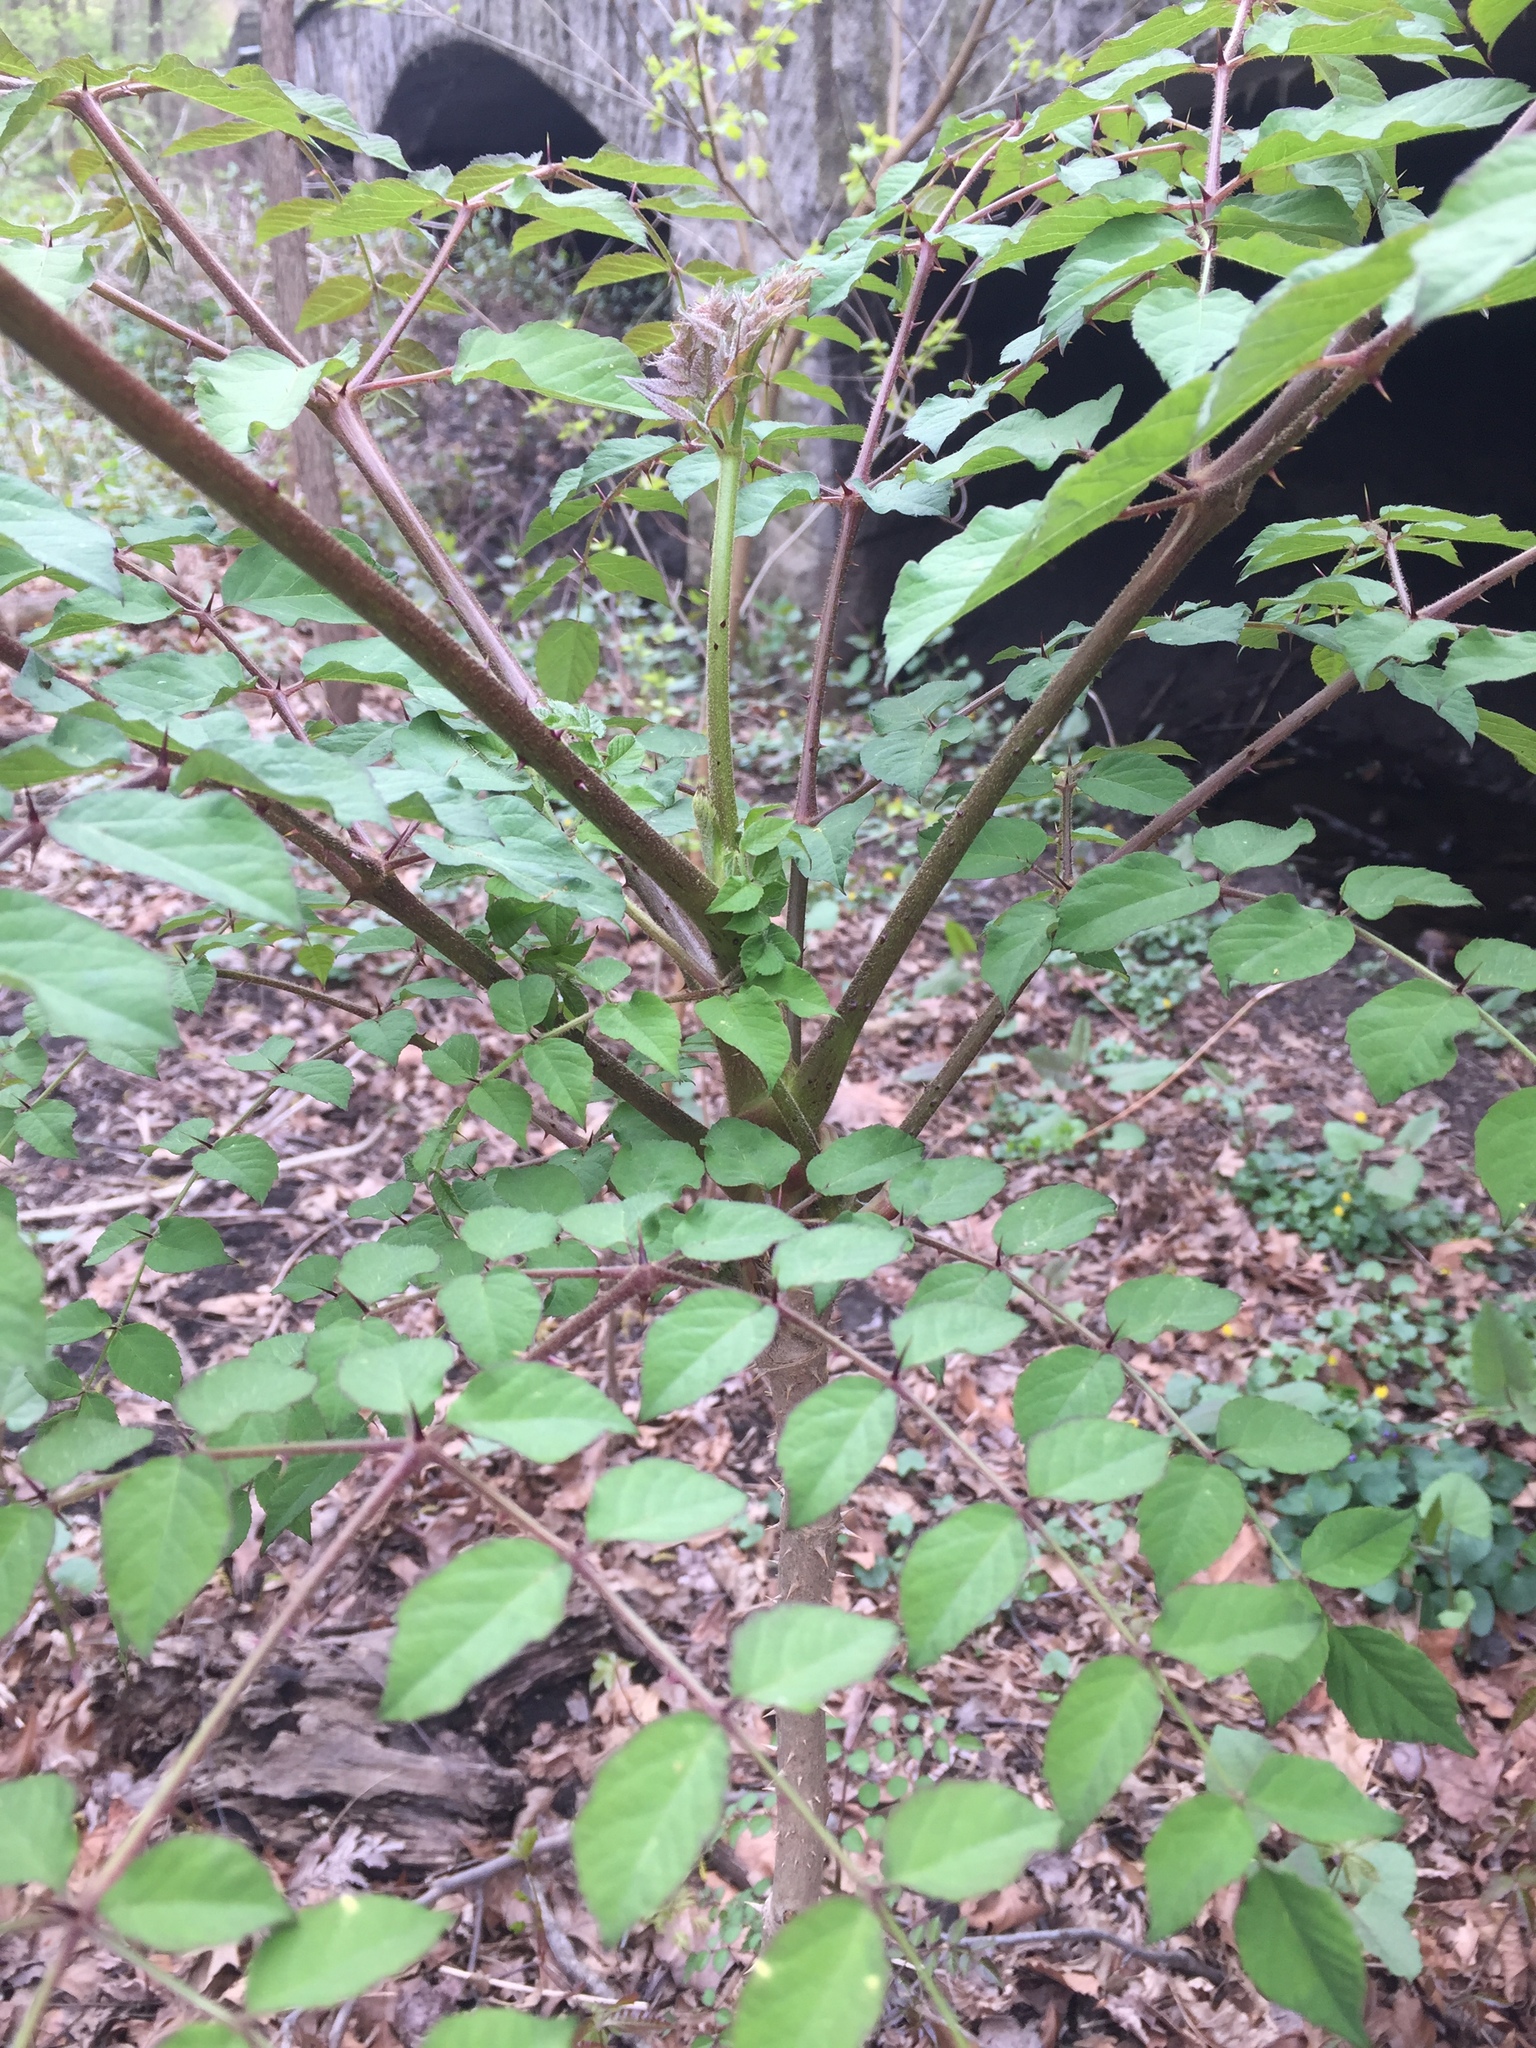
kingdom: Plantae
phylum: Tracheophyta
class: Magnoliopsida
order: Apiales
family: Araliaceae
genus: Aralia
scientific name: Aralia elata
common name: Japanese angelica-tree
